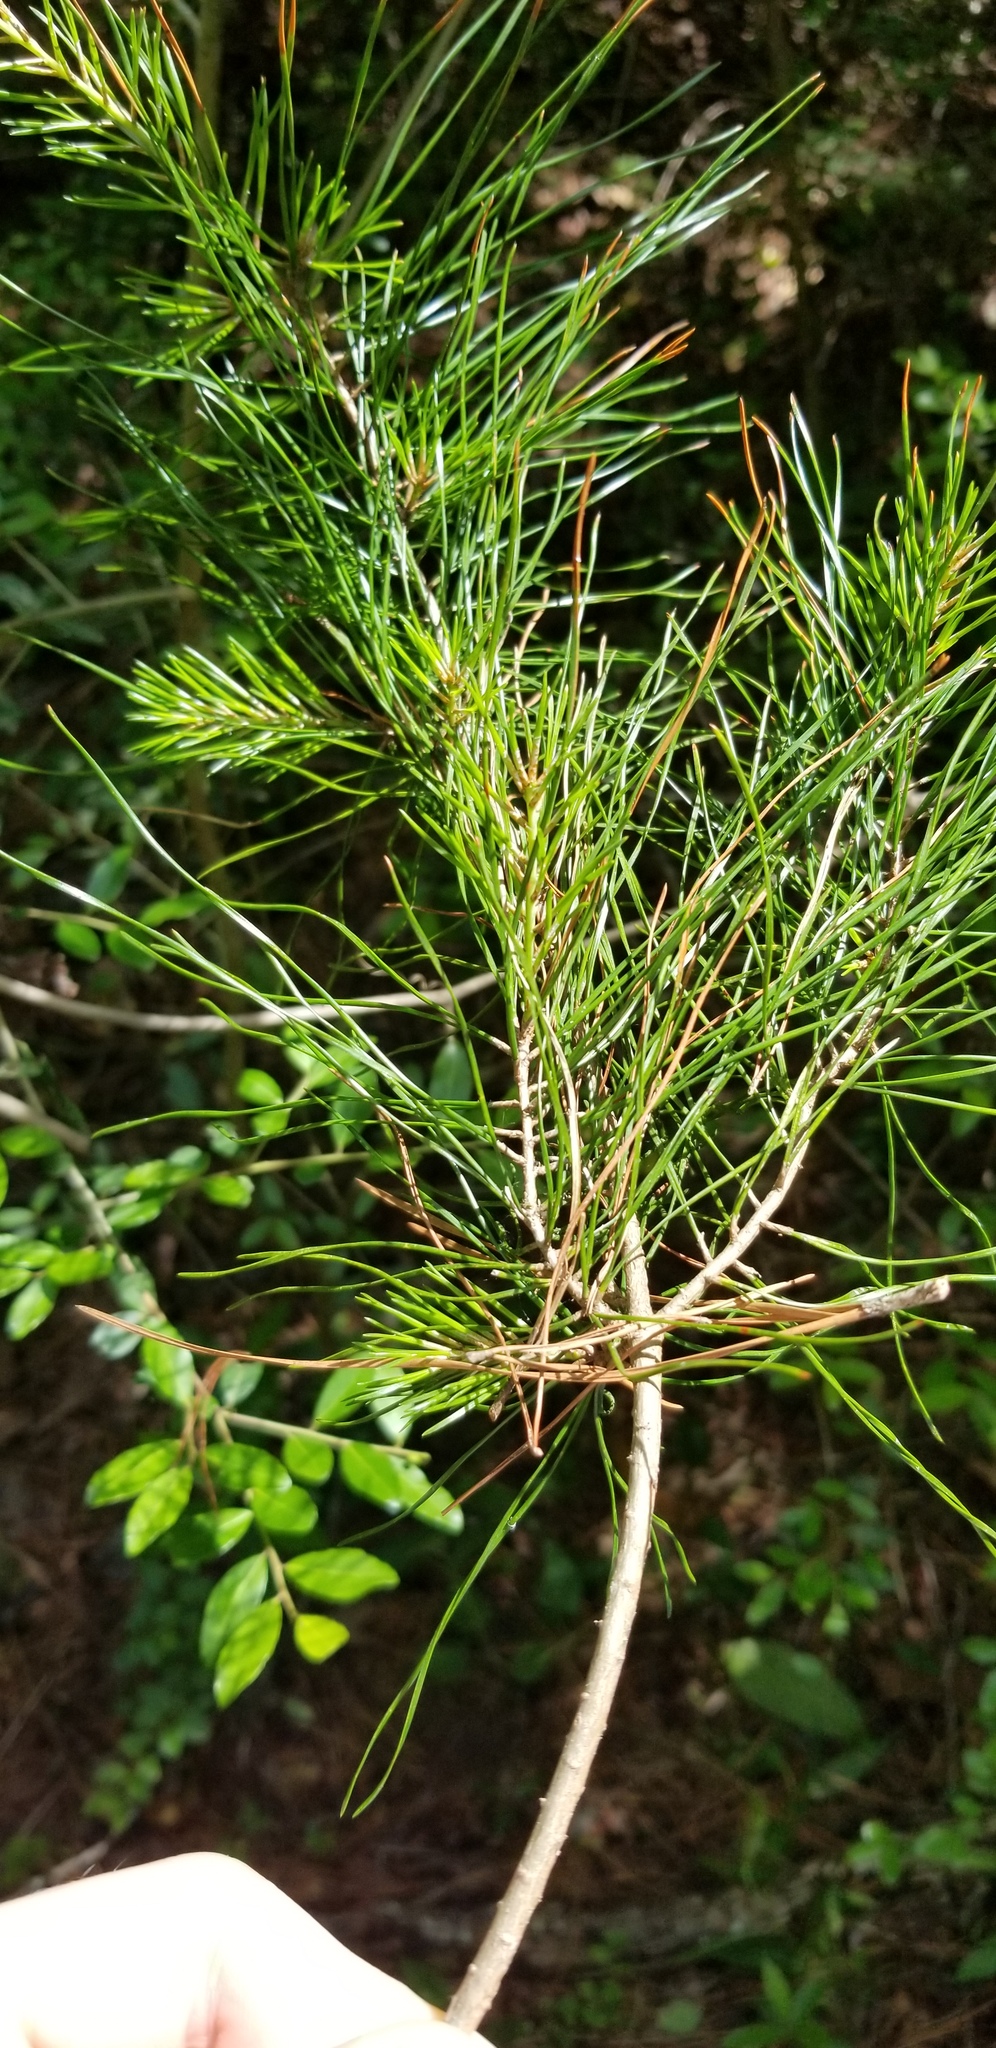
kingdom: Plantae
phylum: Tracheophyta
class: Pinopsida
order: Pinales
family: Pinaceae
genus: Pinus
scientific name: Pinus glabra
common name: Spruce pine
